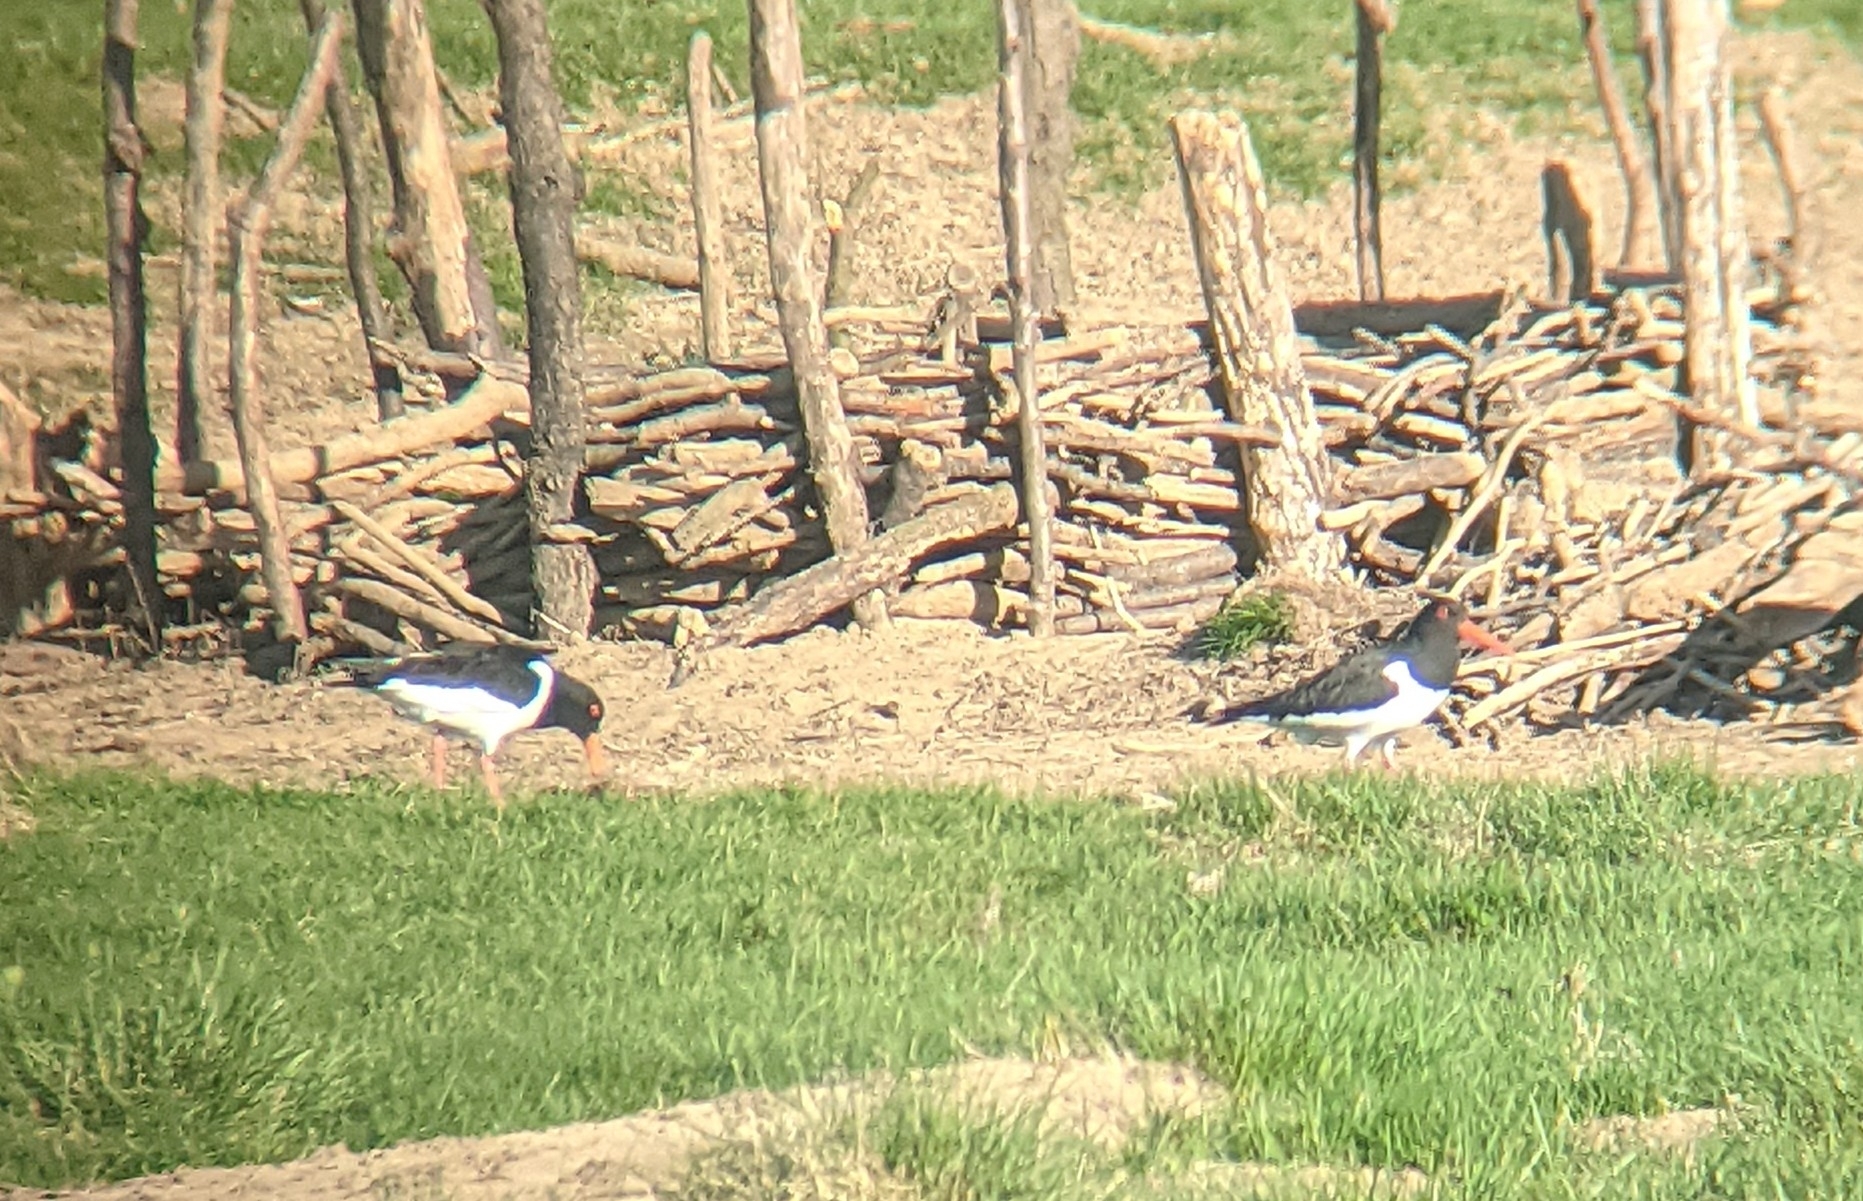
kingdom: Animalia
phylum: Chordata
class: Aves
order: Charadriiformes
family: Haematopodidae
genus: Haematopus
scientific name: Haematopus ostralegus
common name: Eurasian oystercatcher
